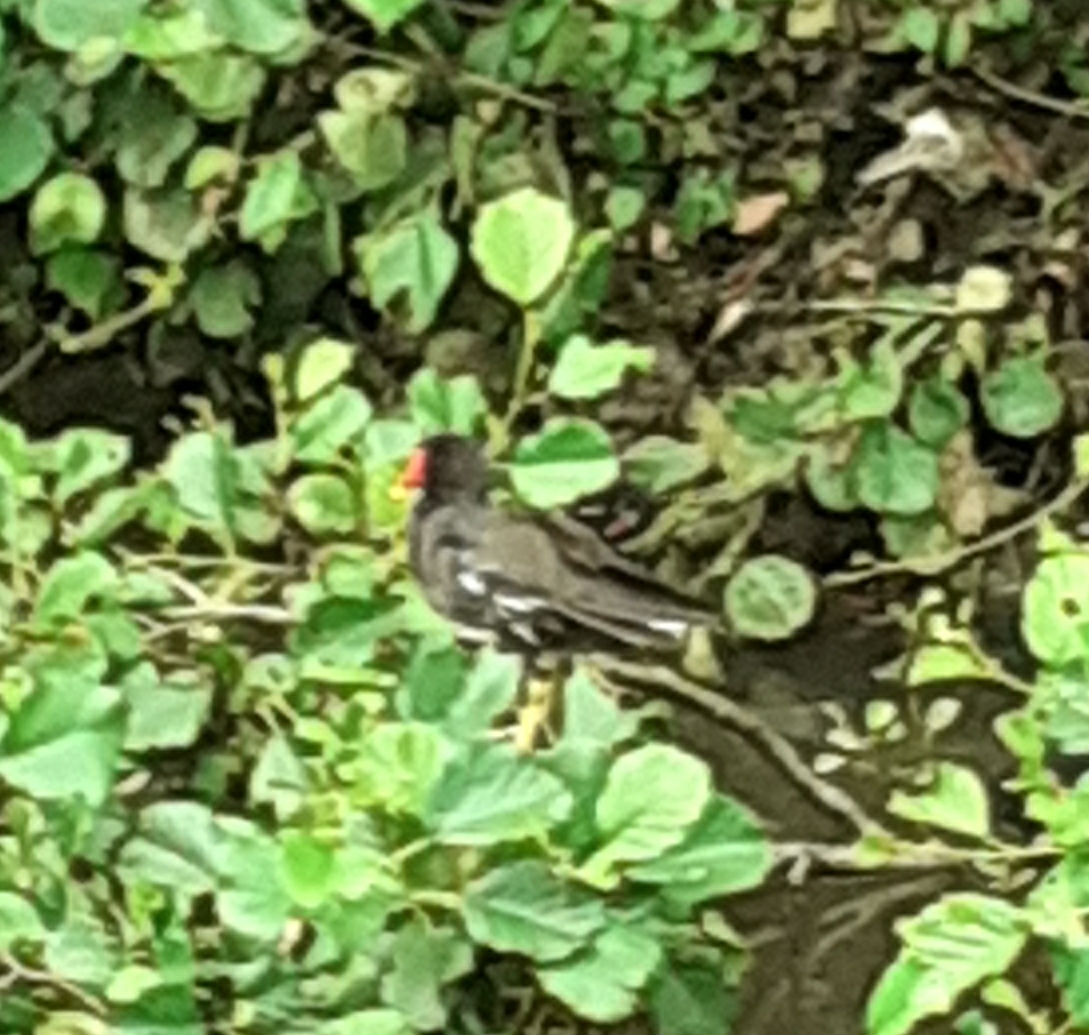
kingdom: Animalia
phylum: Chordata
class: Aves
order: Gruiformes
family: Rallidae
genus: Gallinula
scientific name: Gallinula chloropus
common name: Common moorhen
